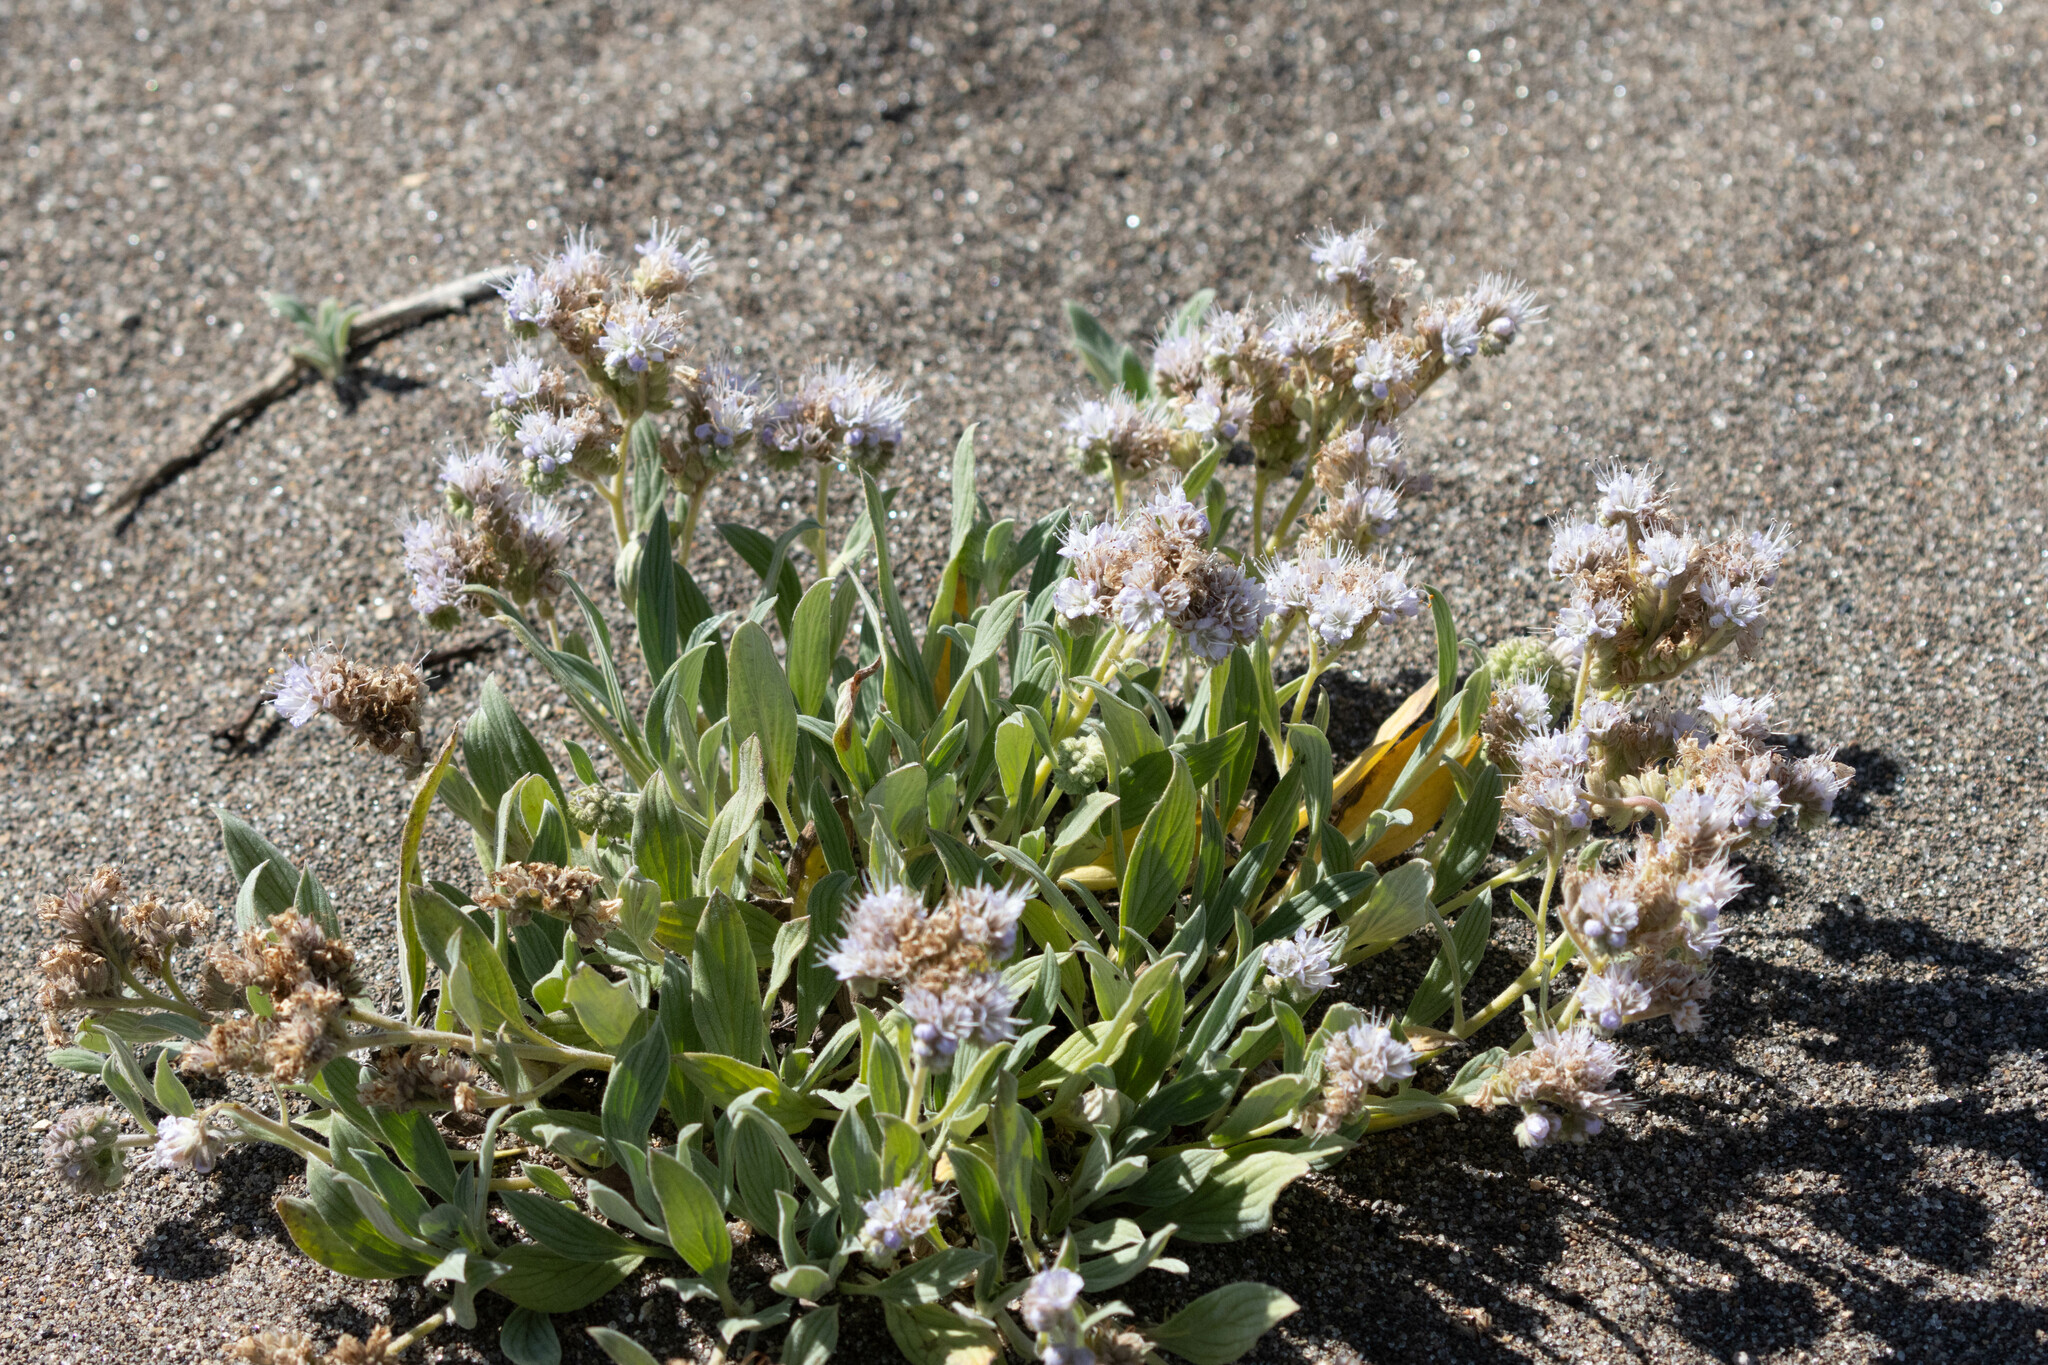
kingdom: Plantae
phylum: Tracheophyta
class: Magnoliopsida
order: Boraginales
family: Hydrophyllaceae
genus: Phacelia
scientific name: Phacelia hastata
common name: Silver-leaved phacelia
